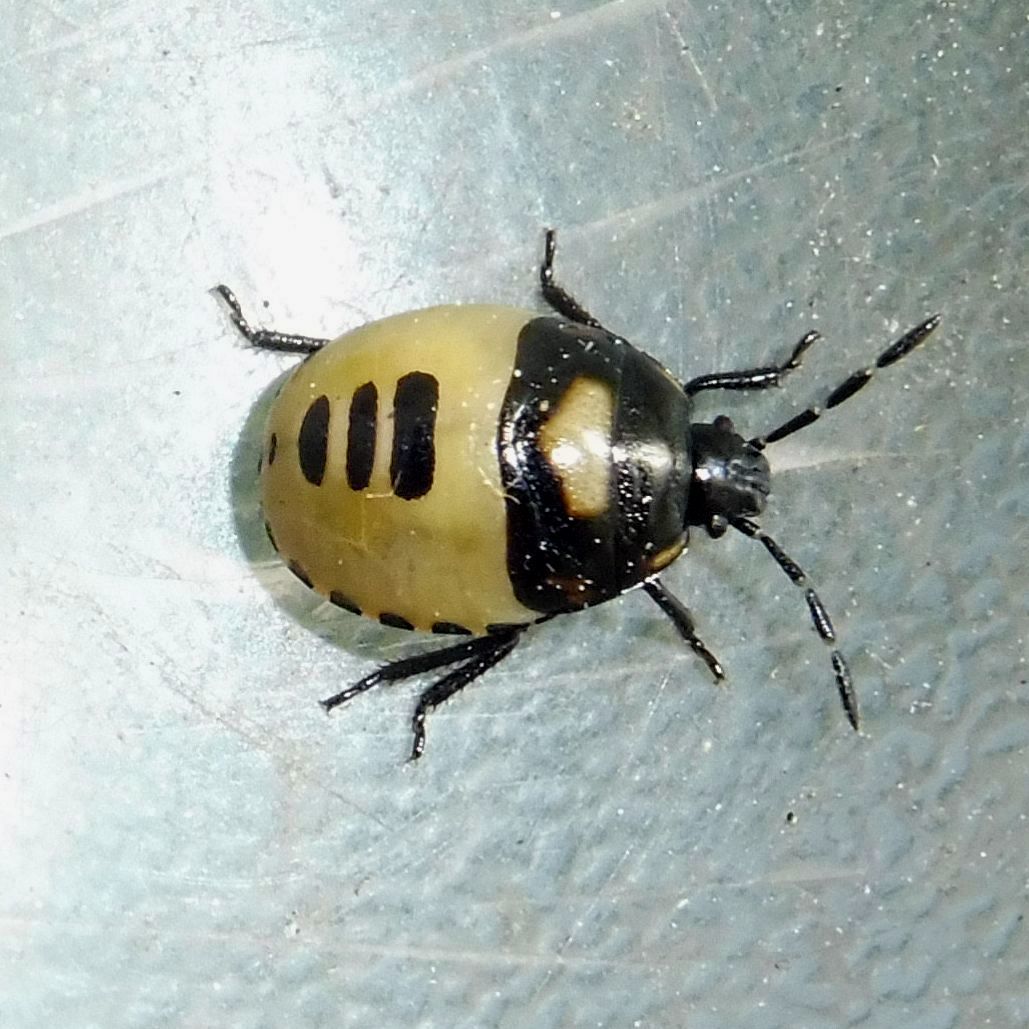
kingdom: Animalia
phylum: Arthropoda
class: Insecta
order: Hemiptera
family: Cydnidae
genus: Tritomegas
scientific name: Tritomegas bicolor
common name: Pied shieldbug
